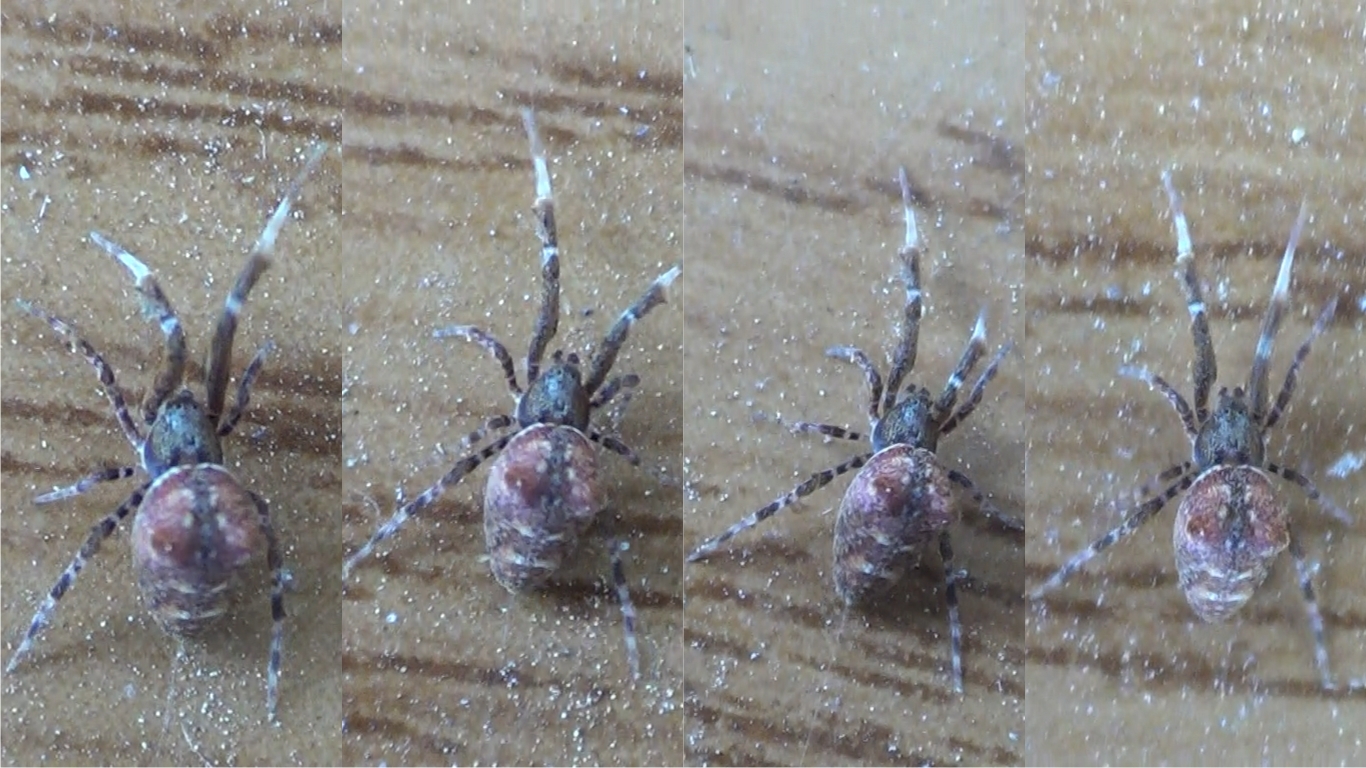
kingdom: Animalia
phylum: Arthropoda
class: Arachnida
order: Araneae
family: Uloboridae
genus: Uloborus
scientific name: Uloborus plumipes
